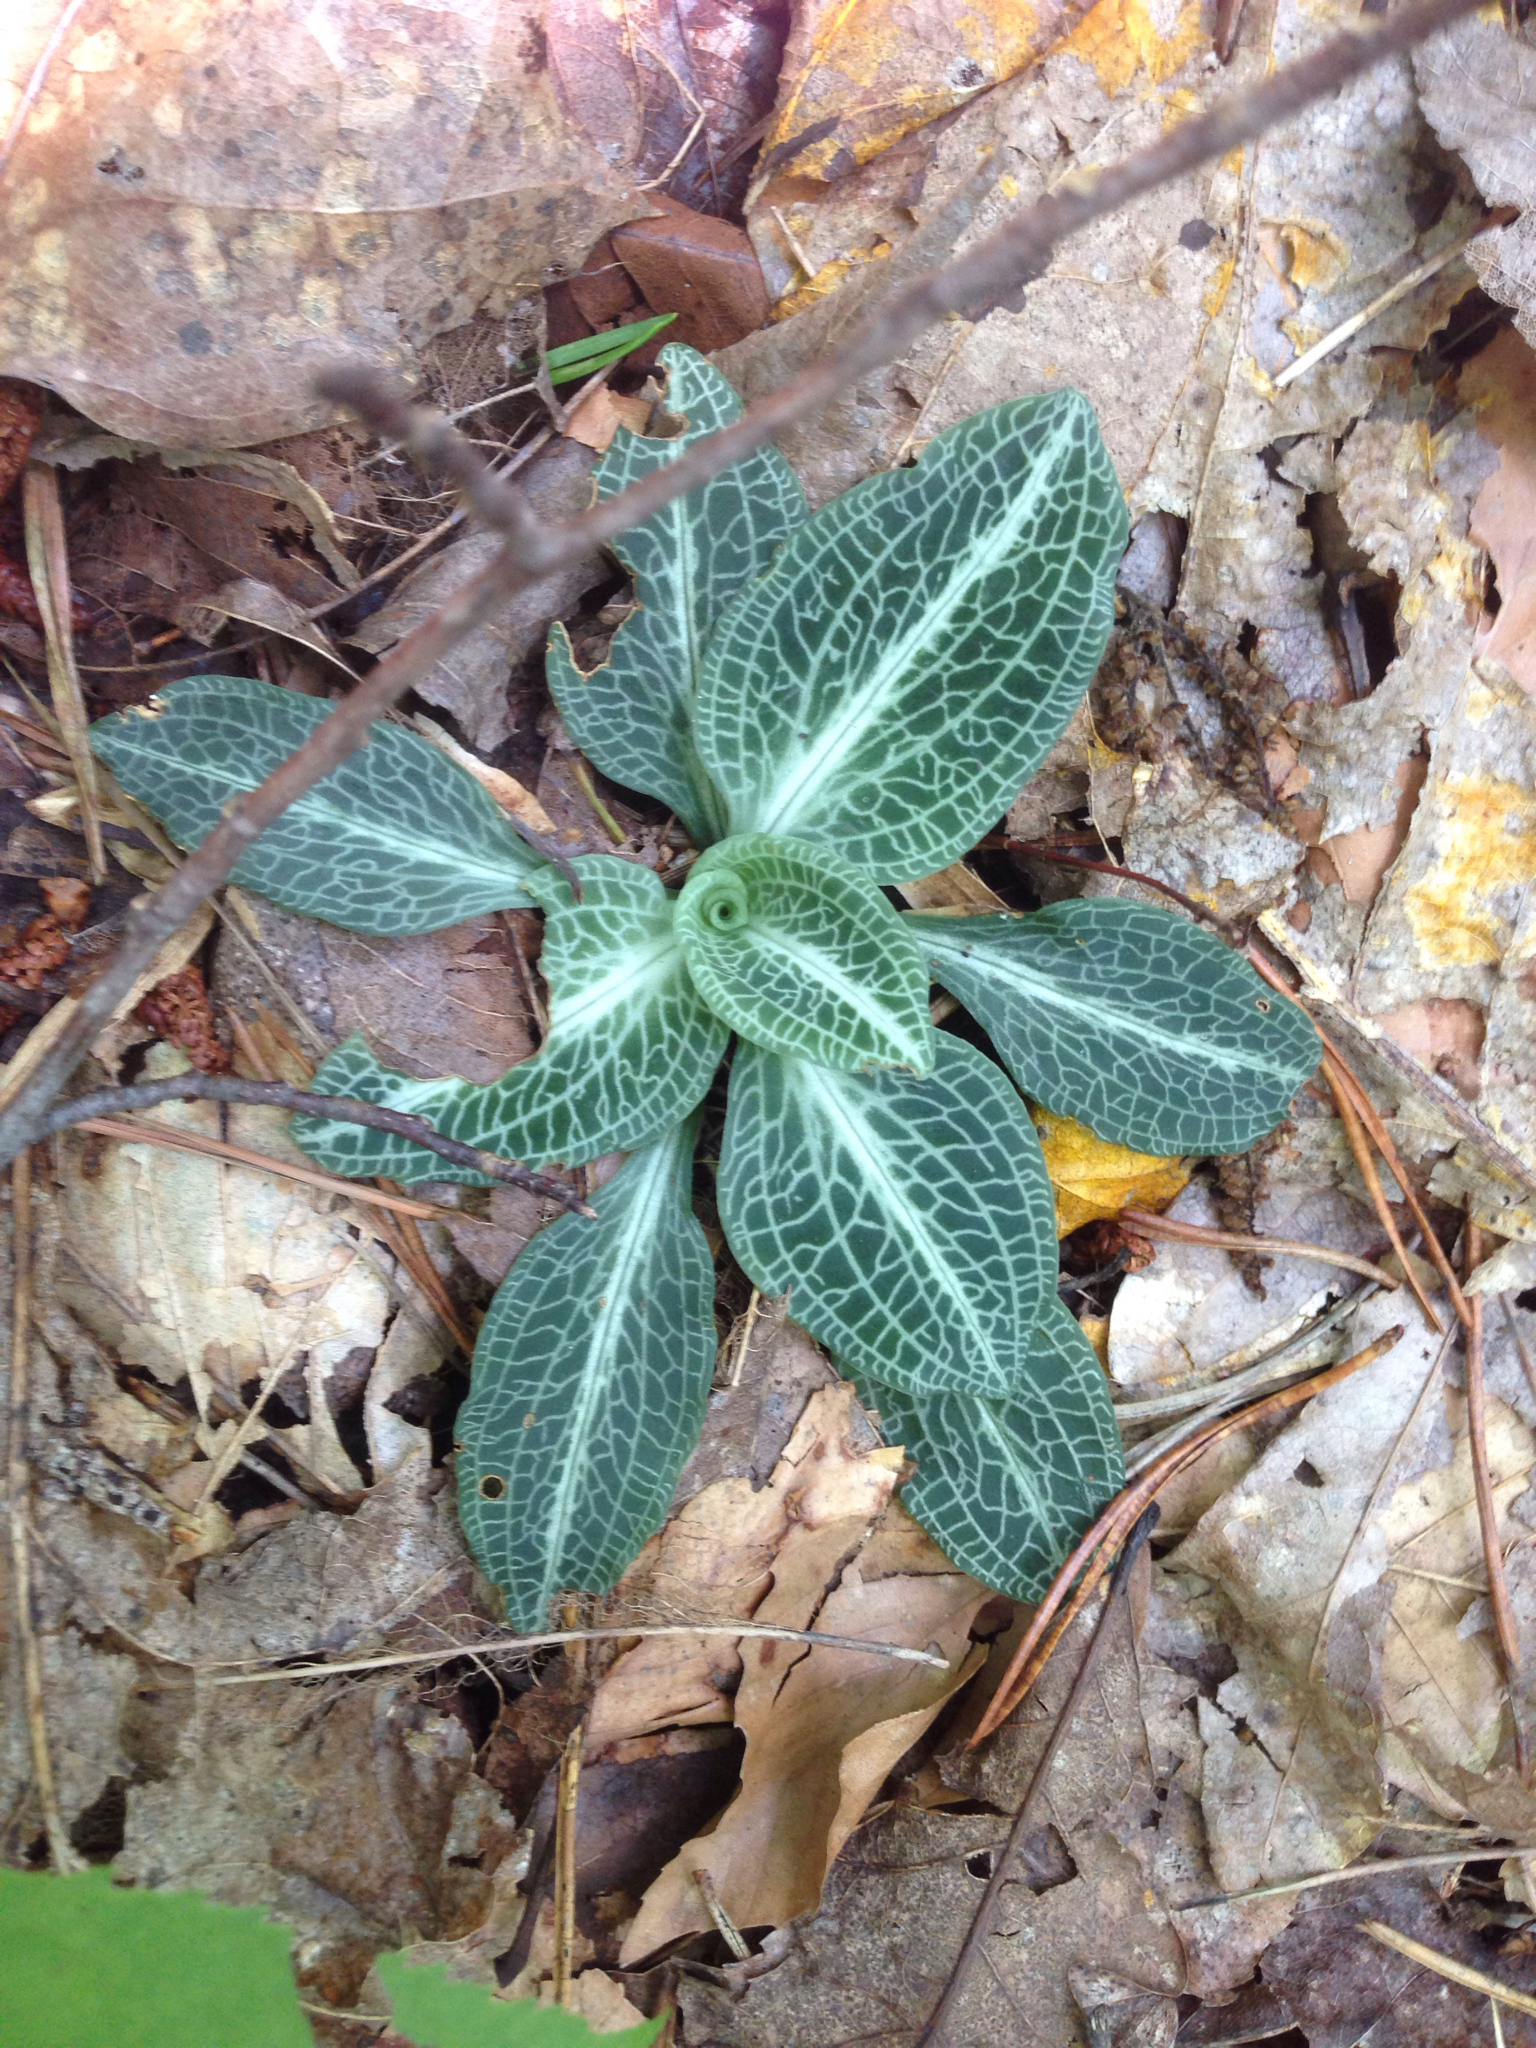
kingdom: Plantae
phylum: Tracheophyta
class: Liliopsida
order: Asparagales
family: Orchidaceae
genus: Goodyera
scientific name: Goodyera pubescens
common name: Downy rattlesnake-plantain
